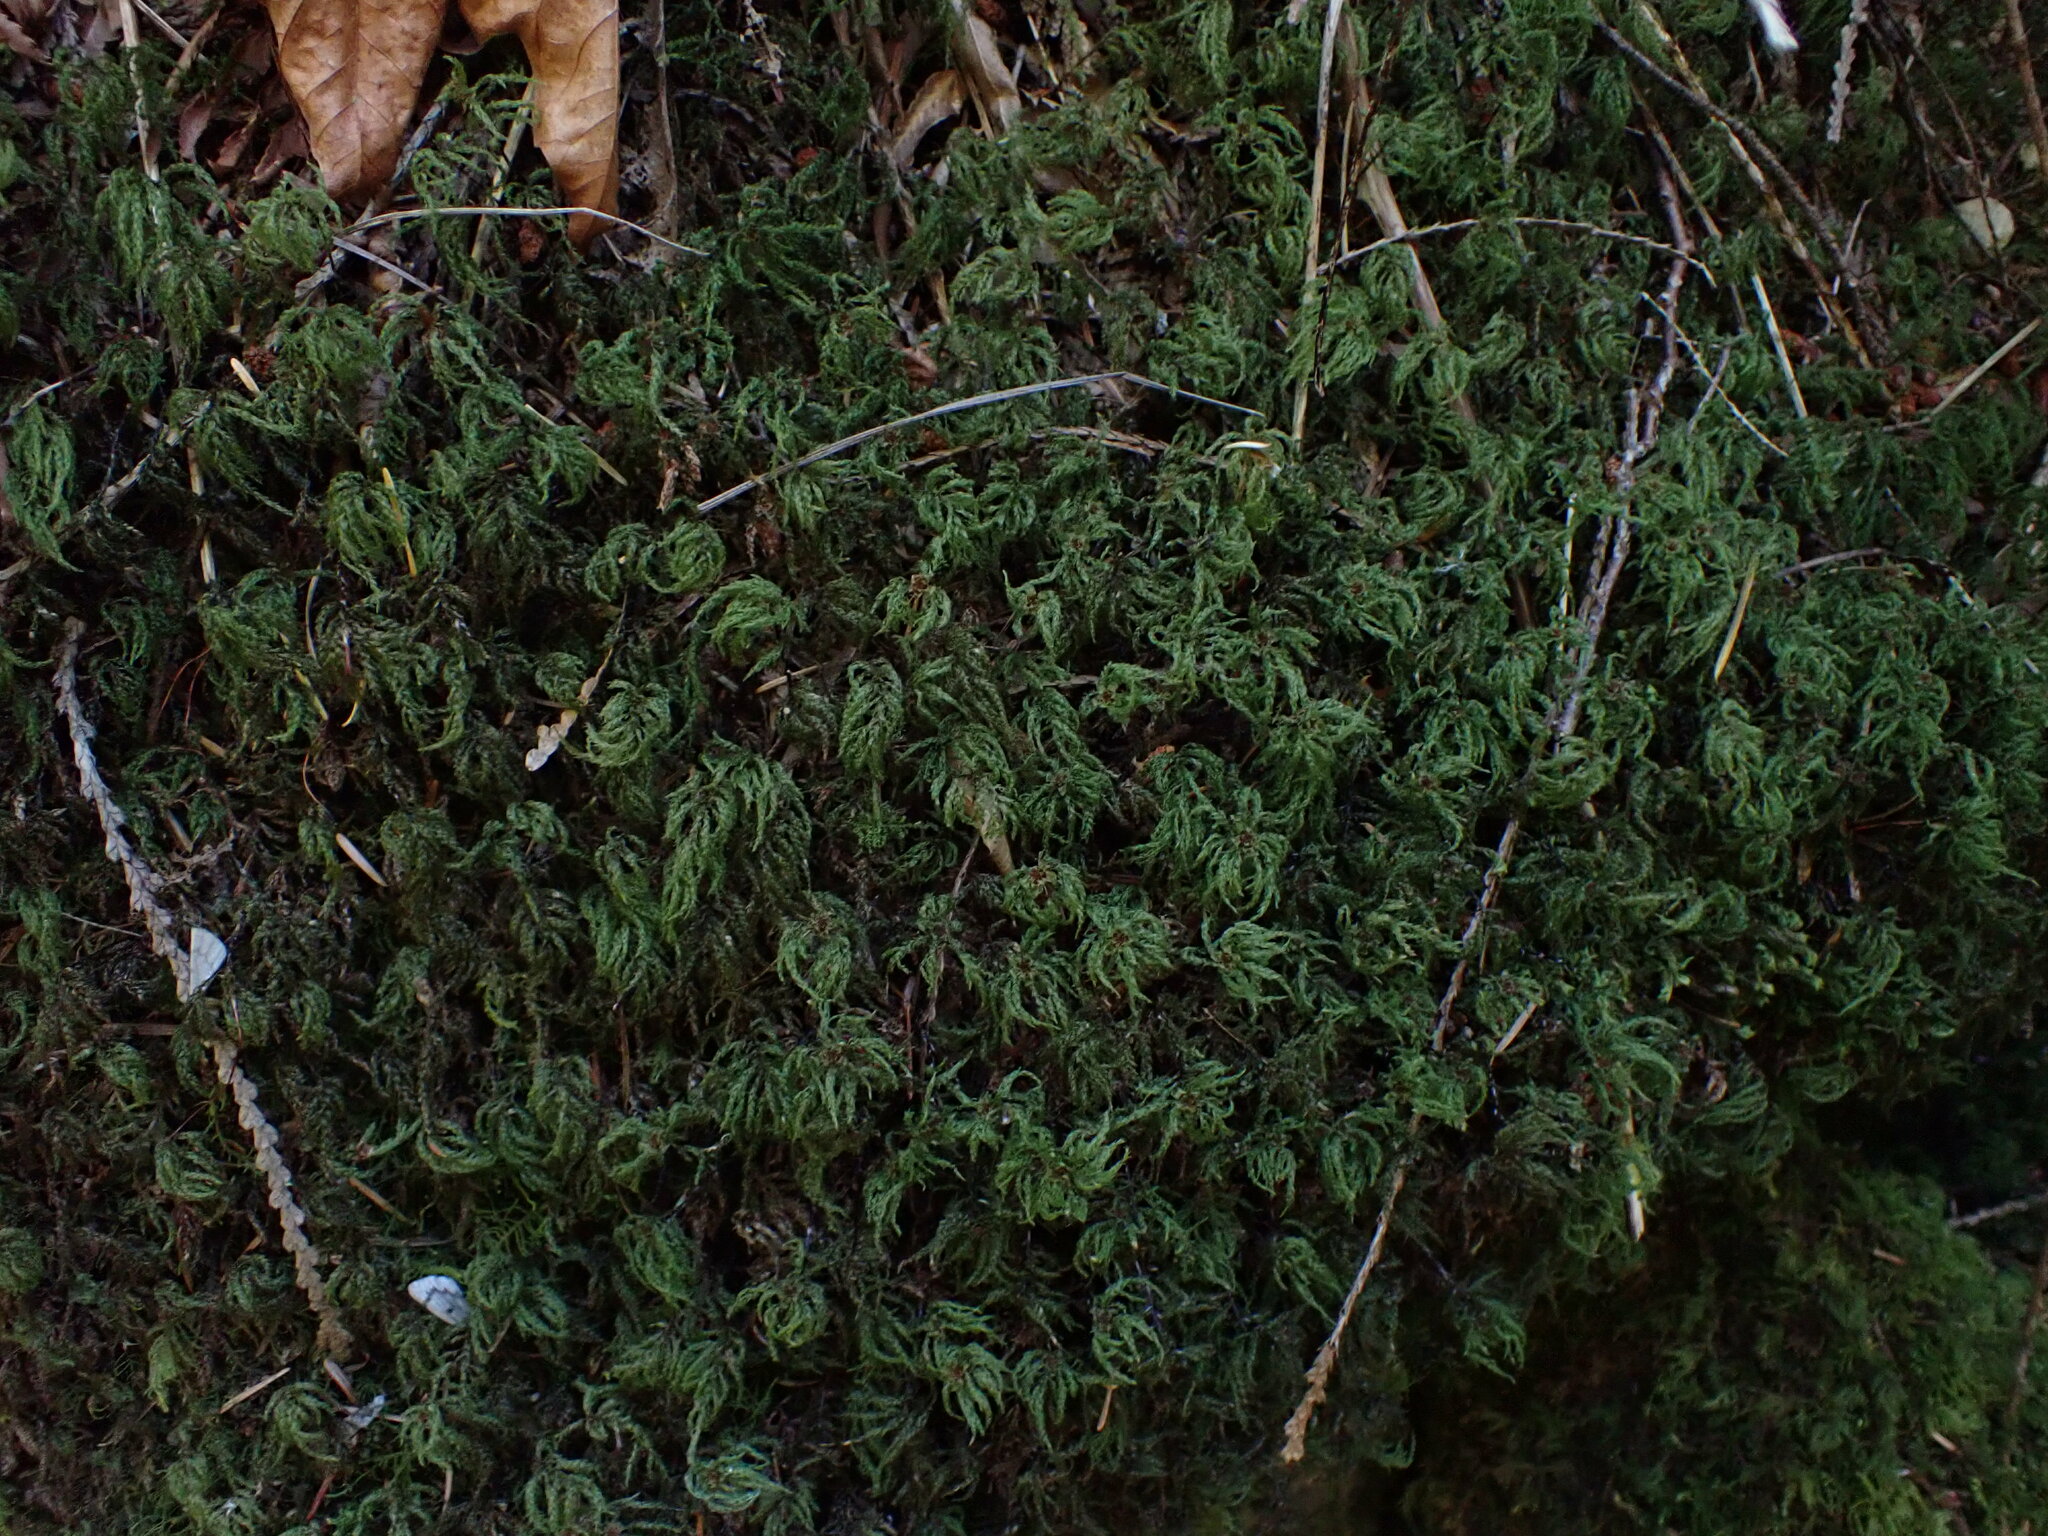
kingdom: Plantae
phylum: Bryophyta
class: Bryopsida
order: Bryales
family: Mniaceae
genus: Leucolepis
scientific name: Leucolepis acanthoneura
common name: Leucolepis umbrella moss
